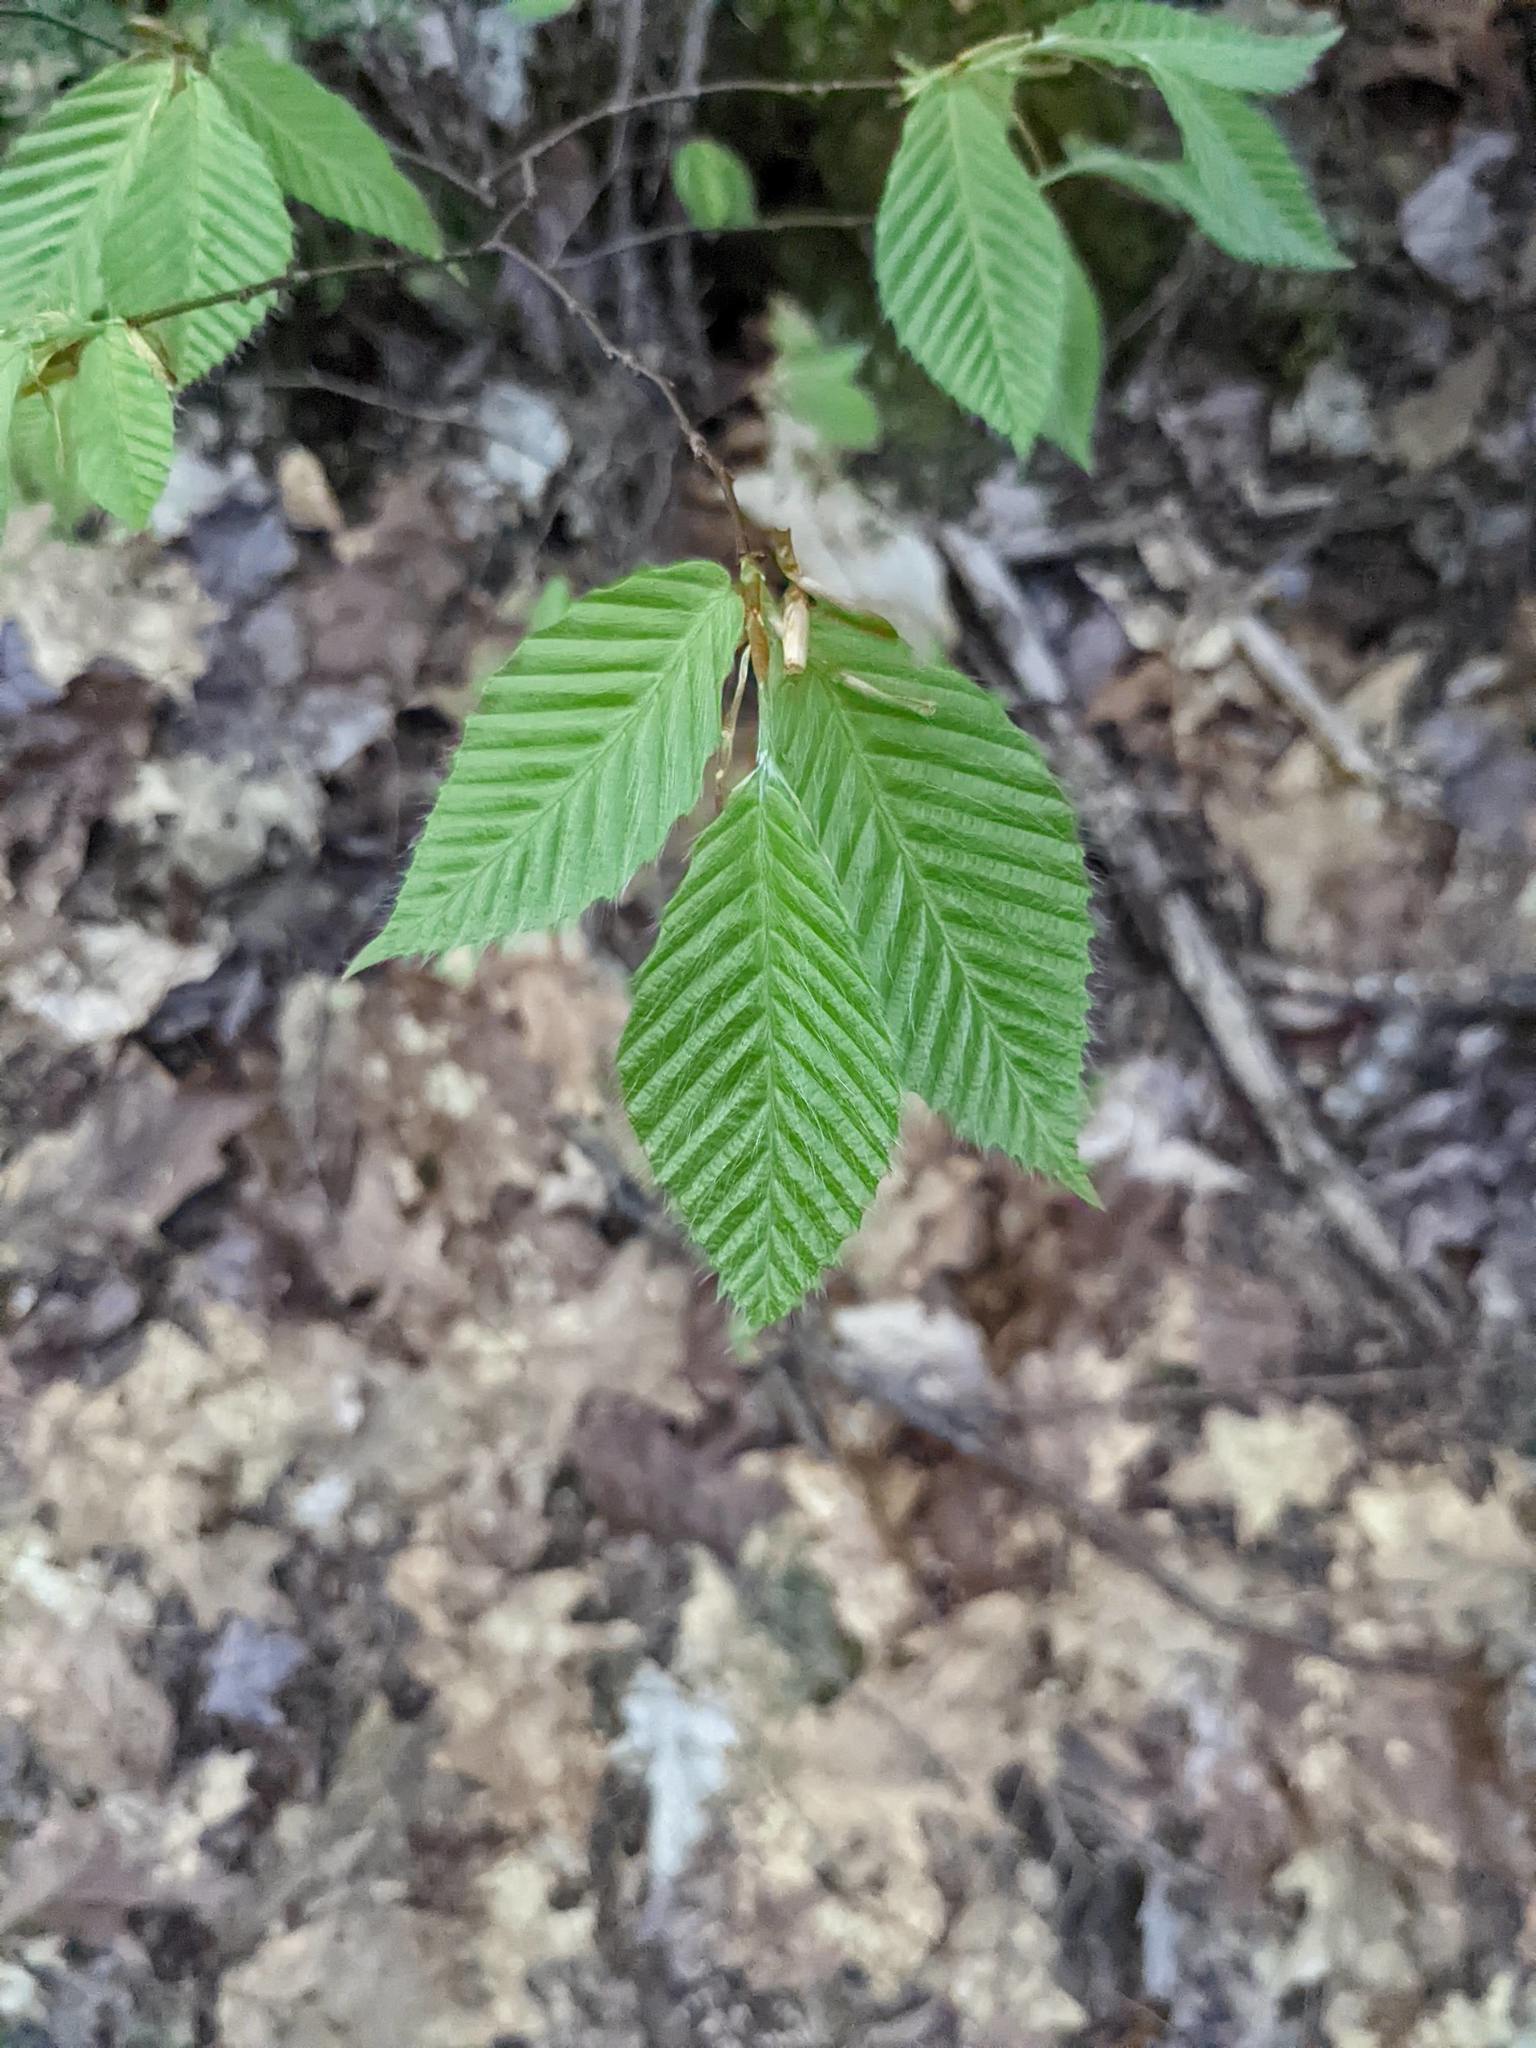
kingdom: Plantae
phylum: Tracheophyta
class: Magnoliopsida
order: Fagales
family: Fagaceae
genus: Fagus
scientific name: Fagus grandifolia
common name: American beech
